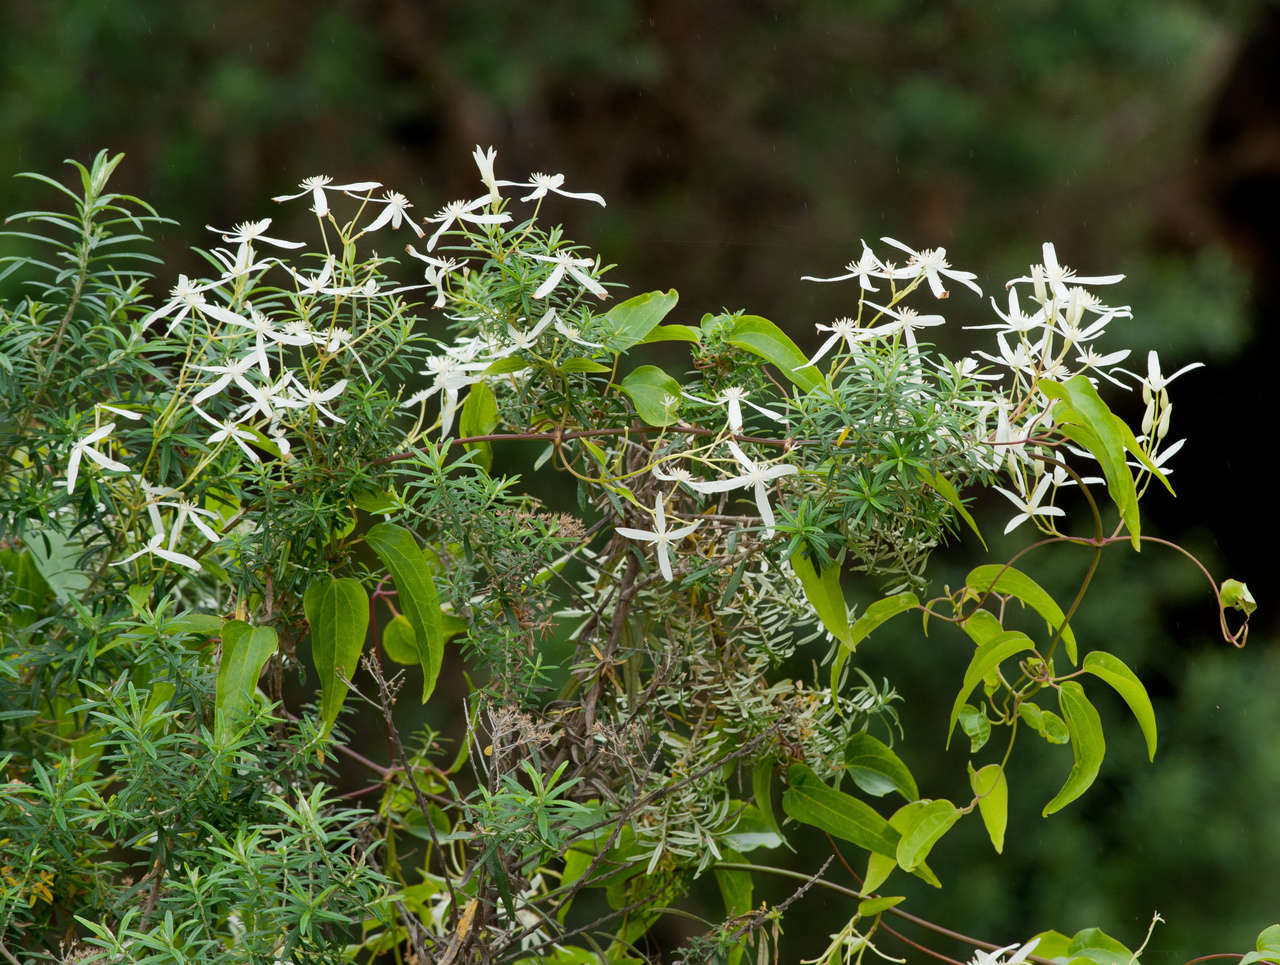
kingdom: Plantae
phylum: Tracheophyta
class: Magnoliopsida
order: Ranunculales
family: Ranunculaceae
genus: Clematis
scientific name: Clematis glycinoides
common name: Forest clematis
